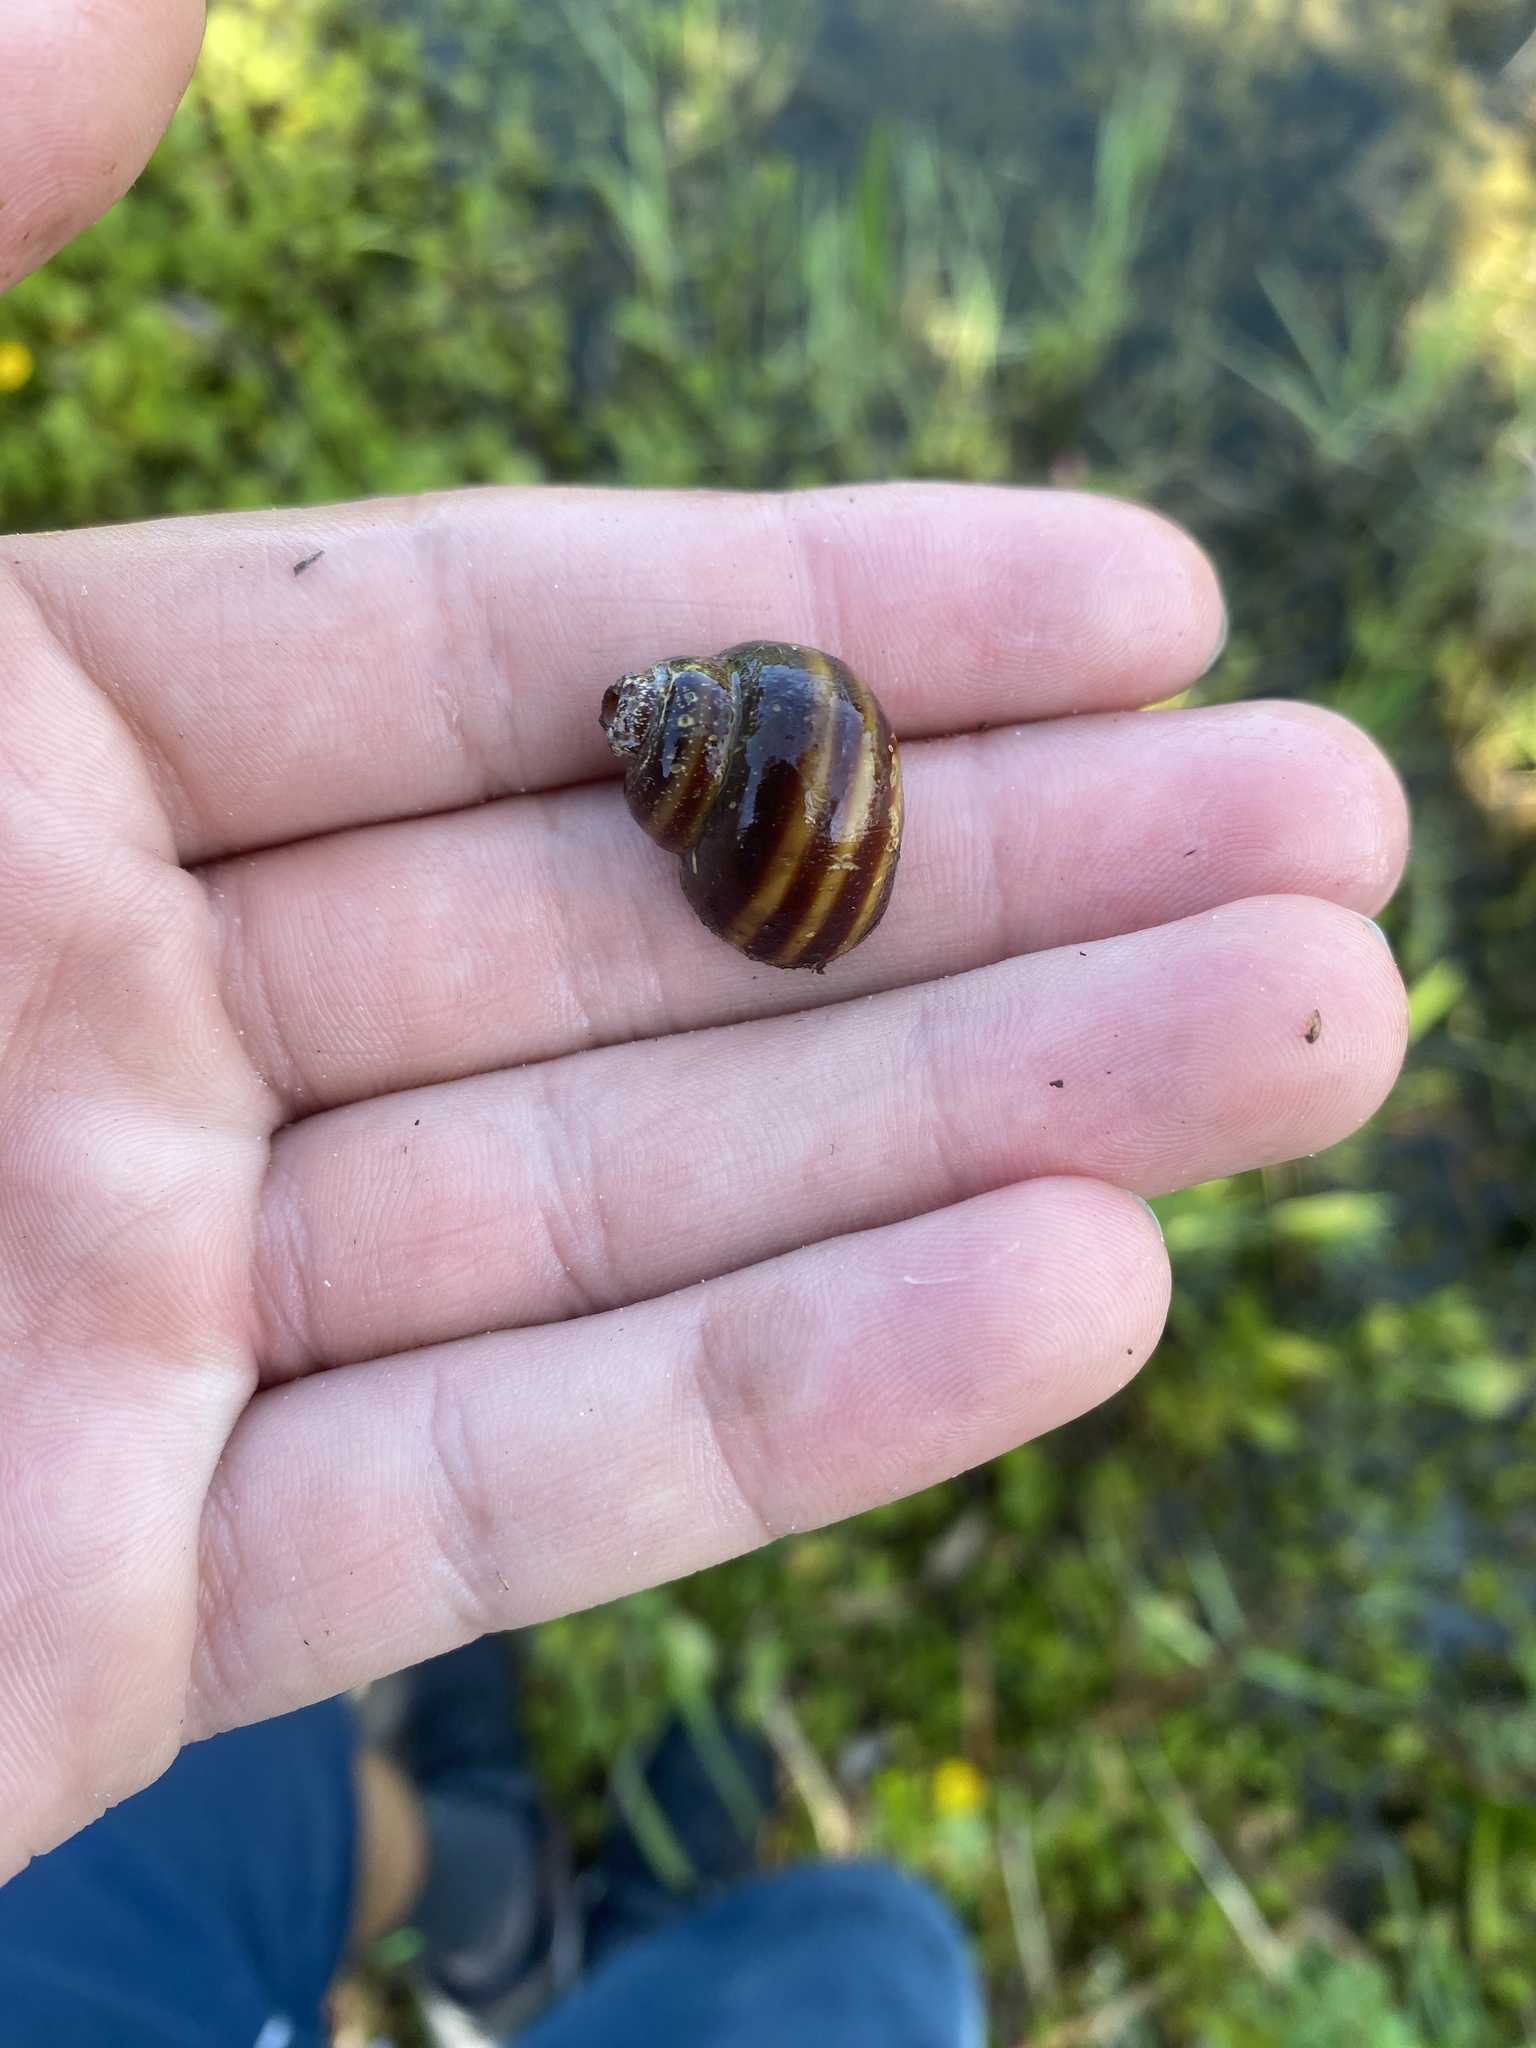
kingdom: Animalia
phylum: Mollusca
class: Gastropoda
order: Architaenioglossa
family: Viviparidae
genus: Callinina
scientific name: Callinina georgiana
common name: Banded mystery snail
